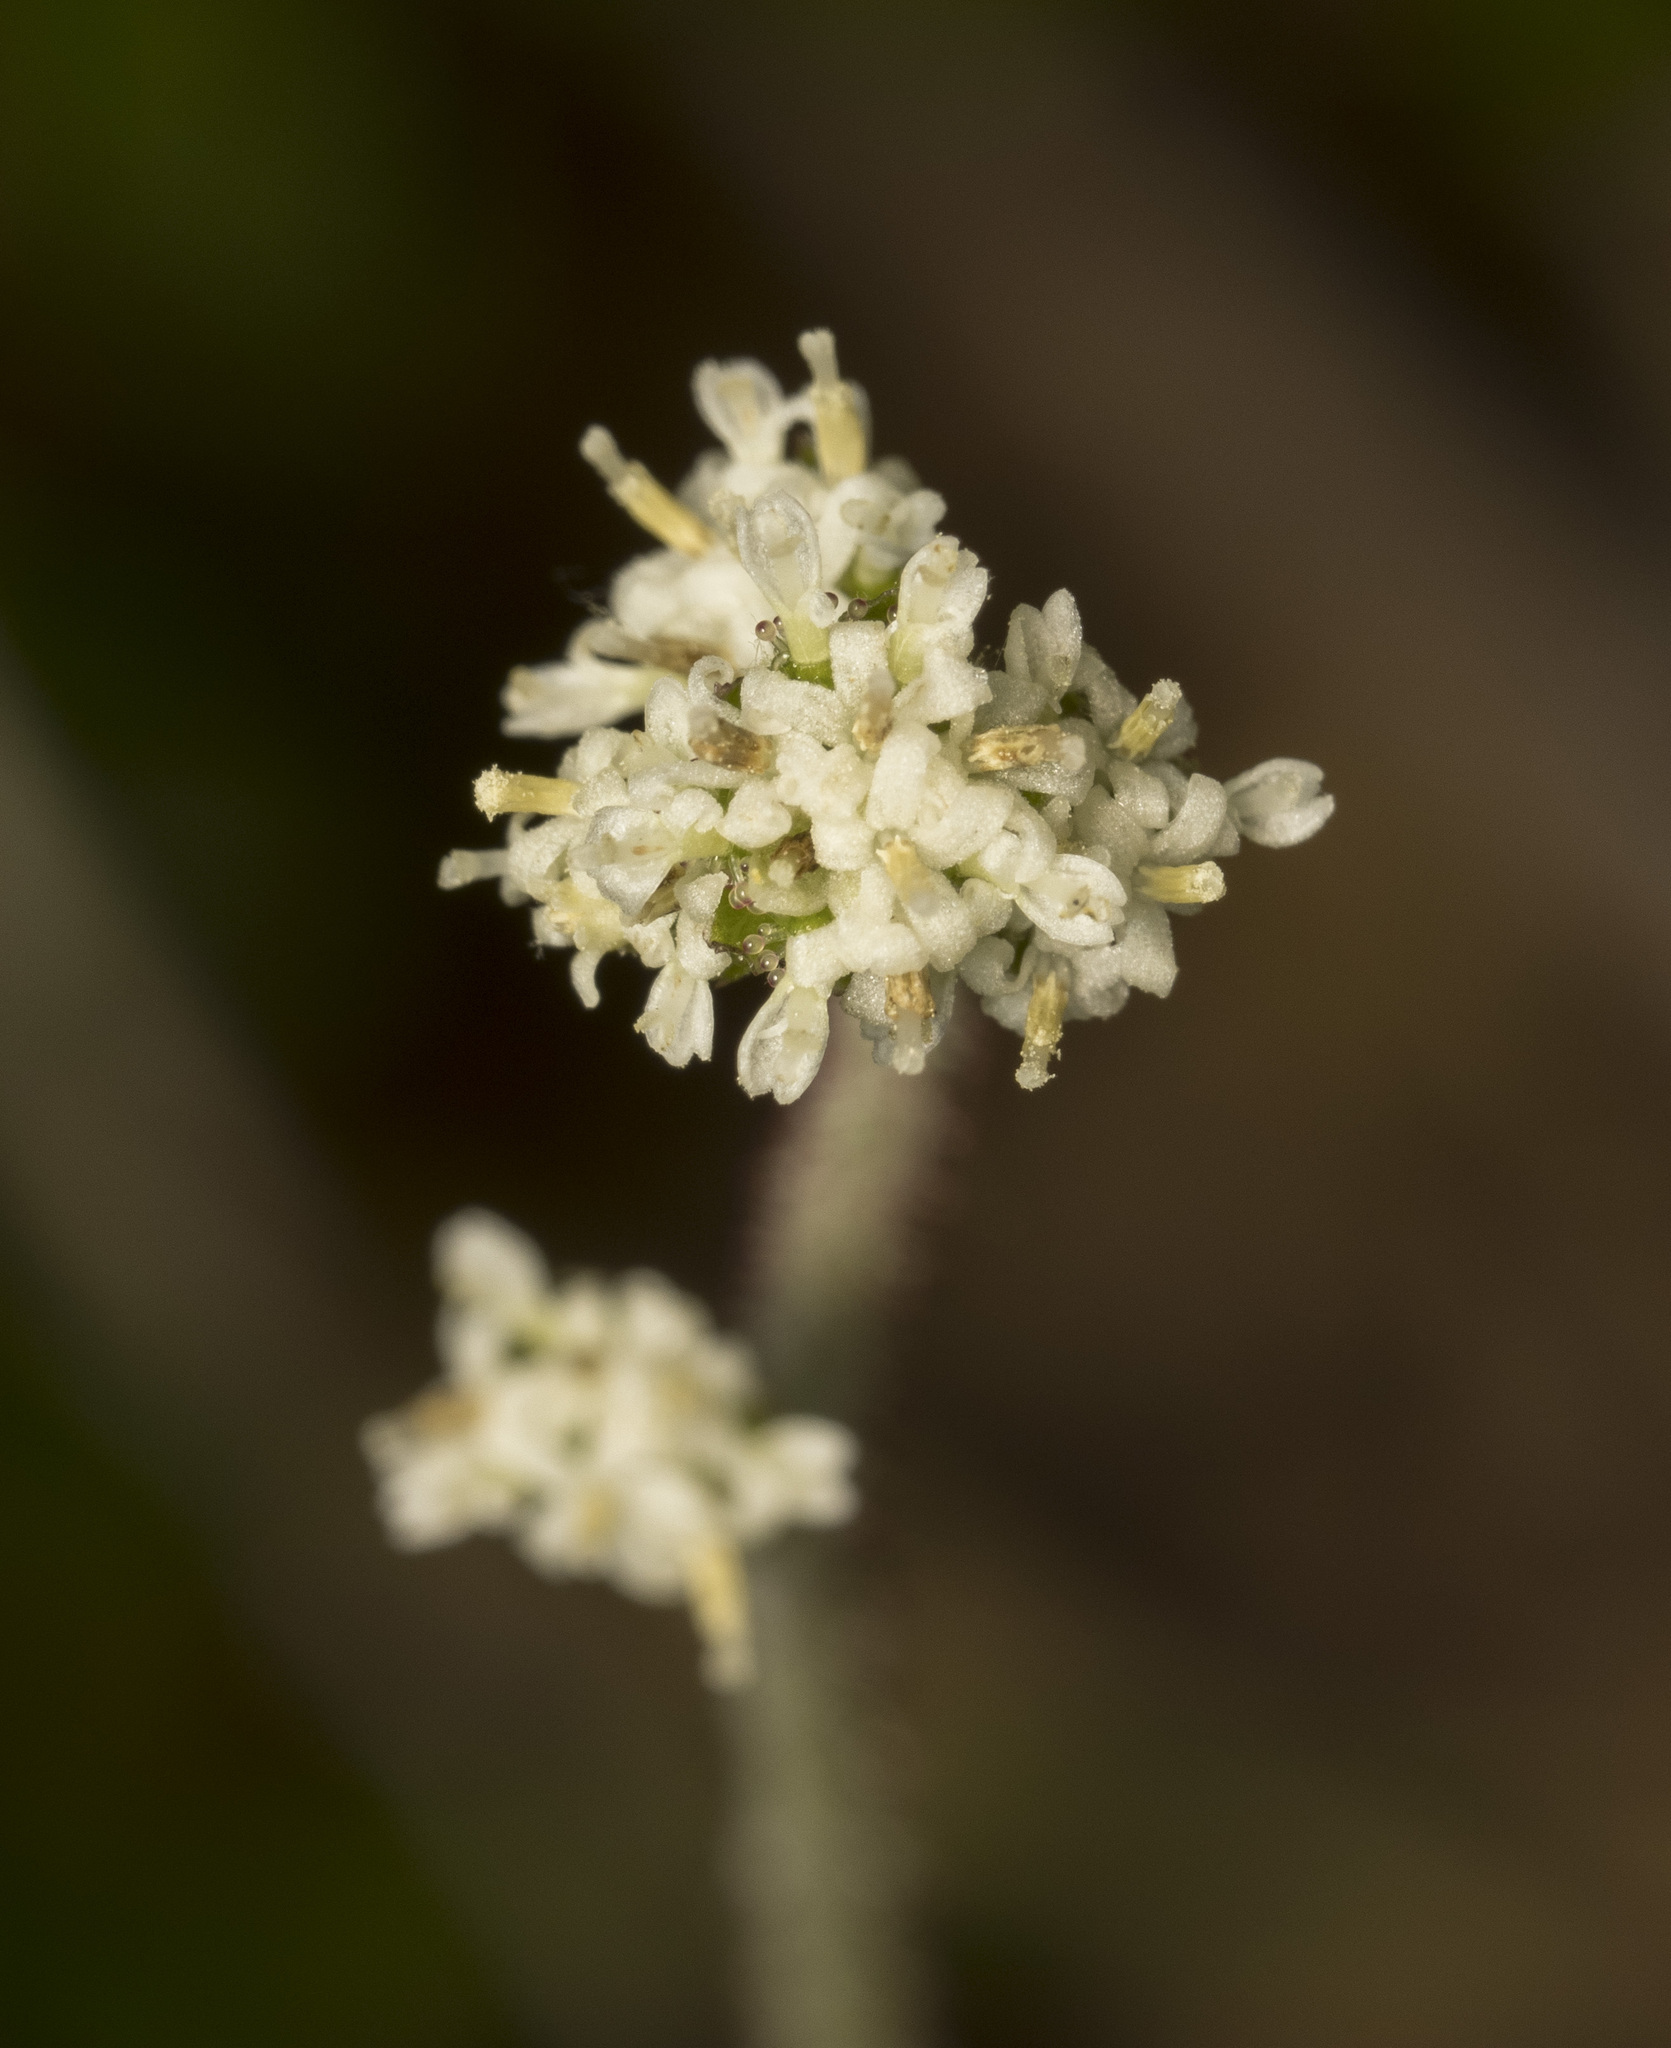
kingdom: Plantae
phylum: Tracheophyta
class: Magnoliopsida
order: Asterales
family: Asteraceae
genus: Adenocaulon
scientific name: Adenocaulon chilense
